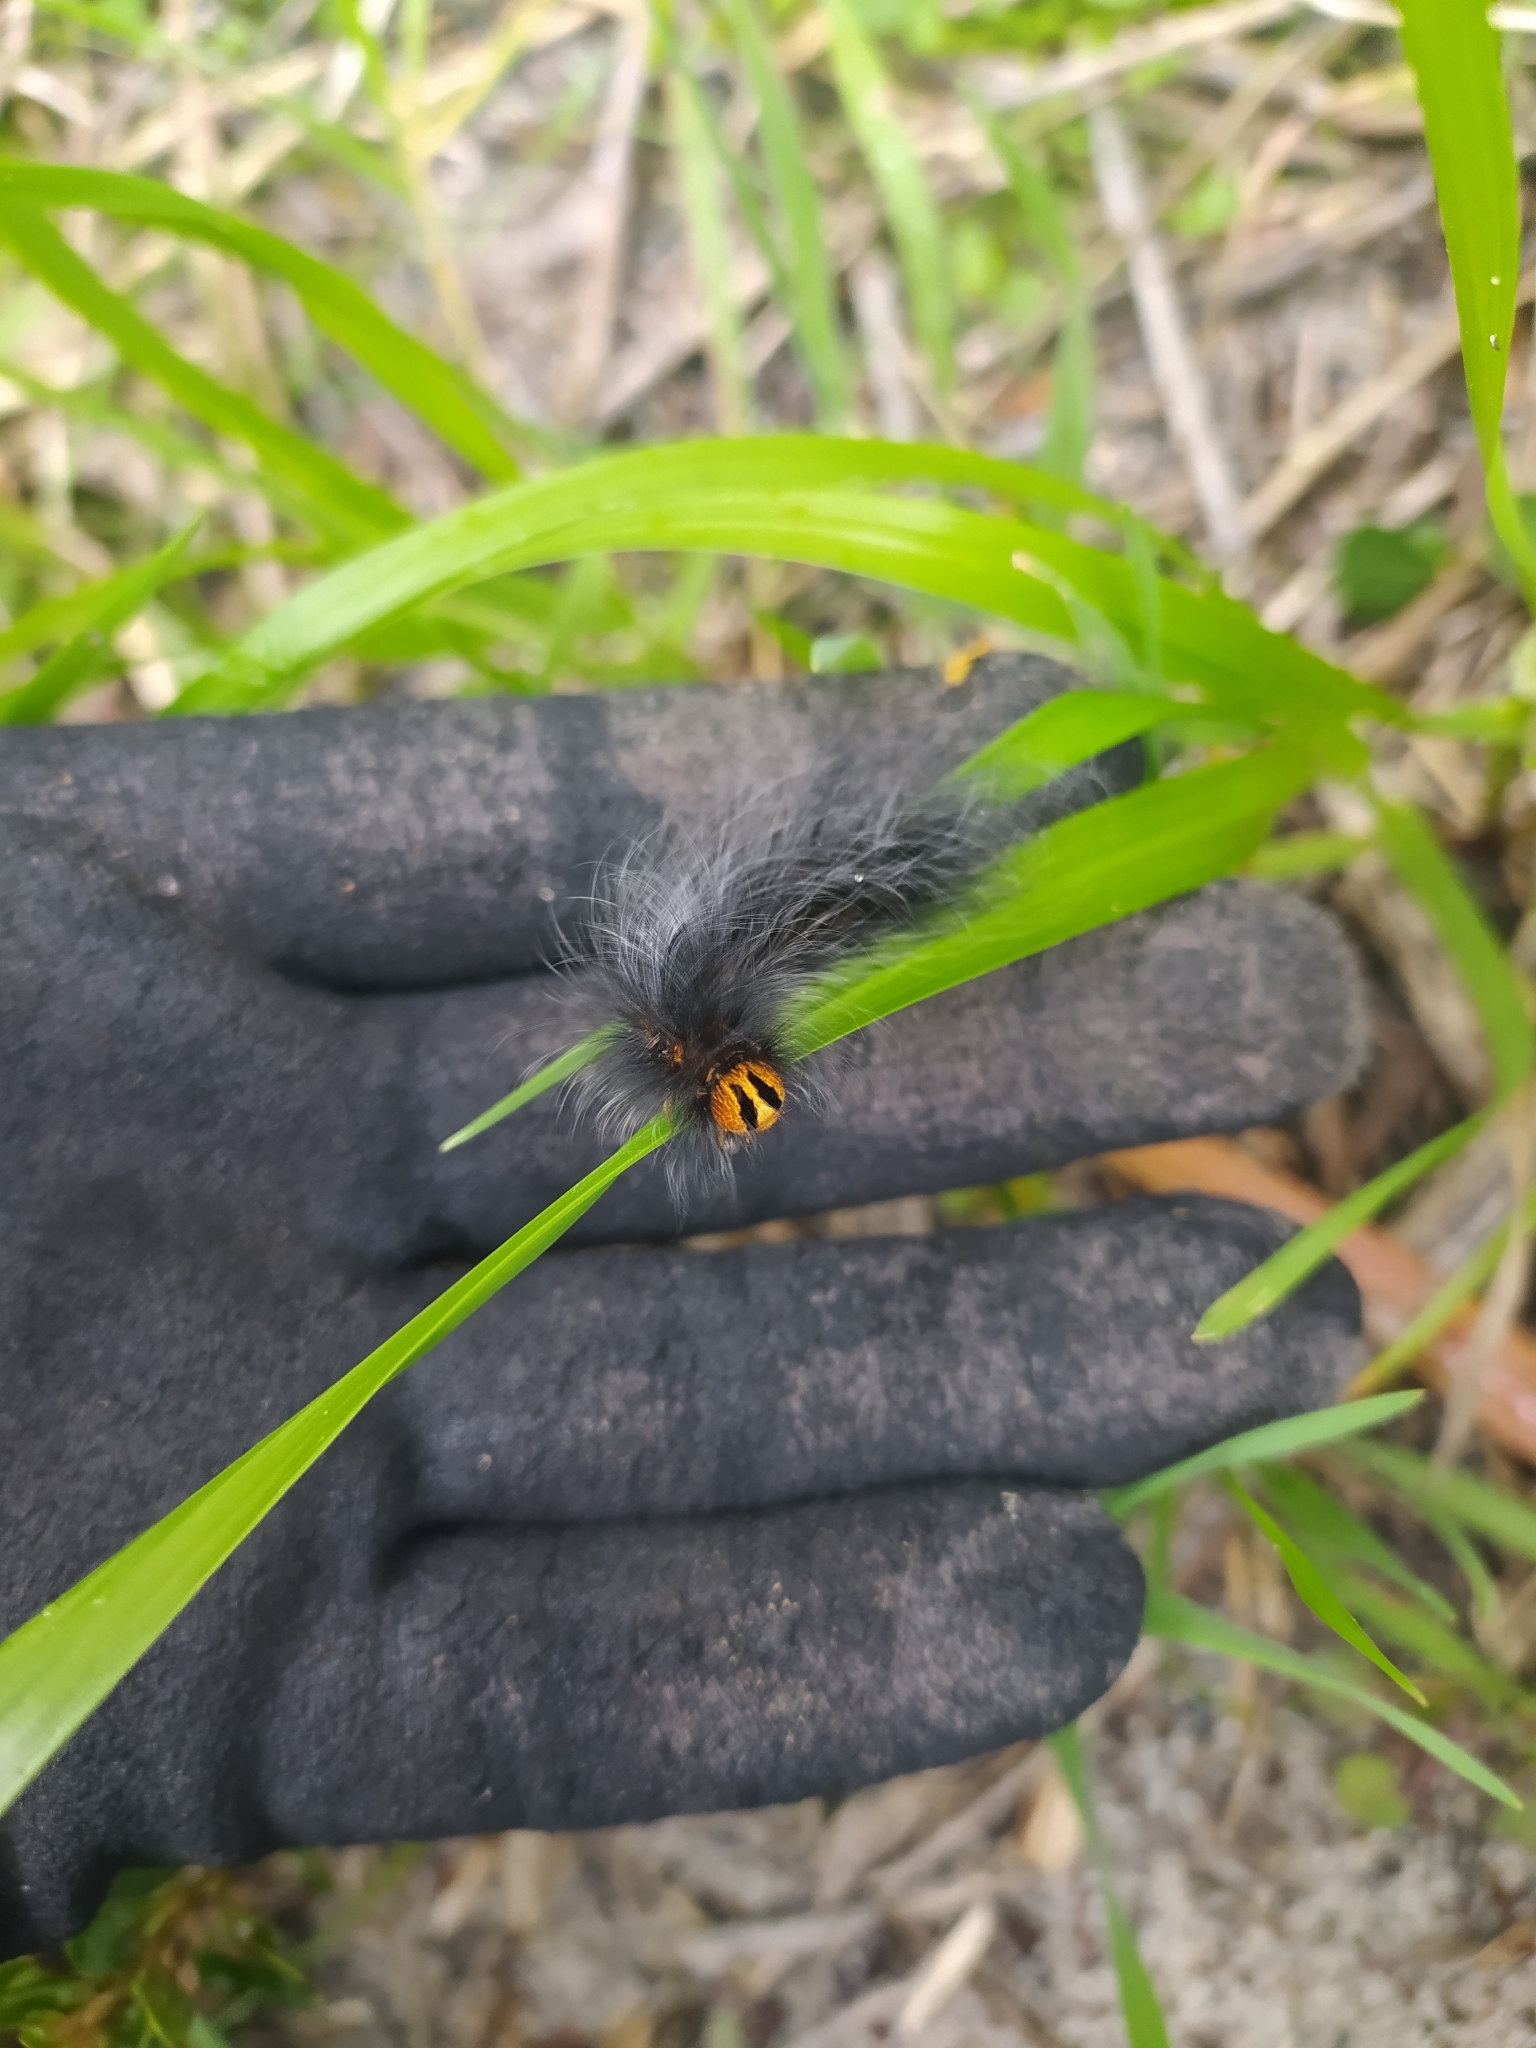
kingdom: Animalia
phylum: Arthropoda
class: Insecta
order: Lepidoptera
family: Lasiocampidae
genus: Mesocelis
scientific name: Mesocelis monticola
